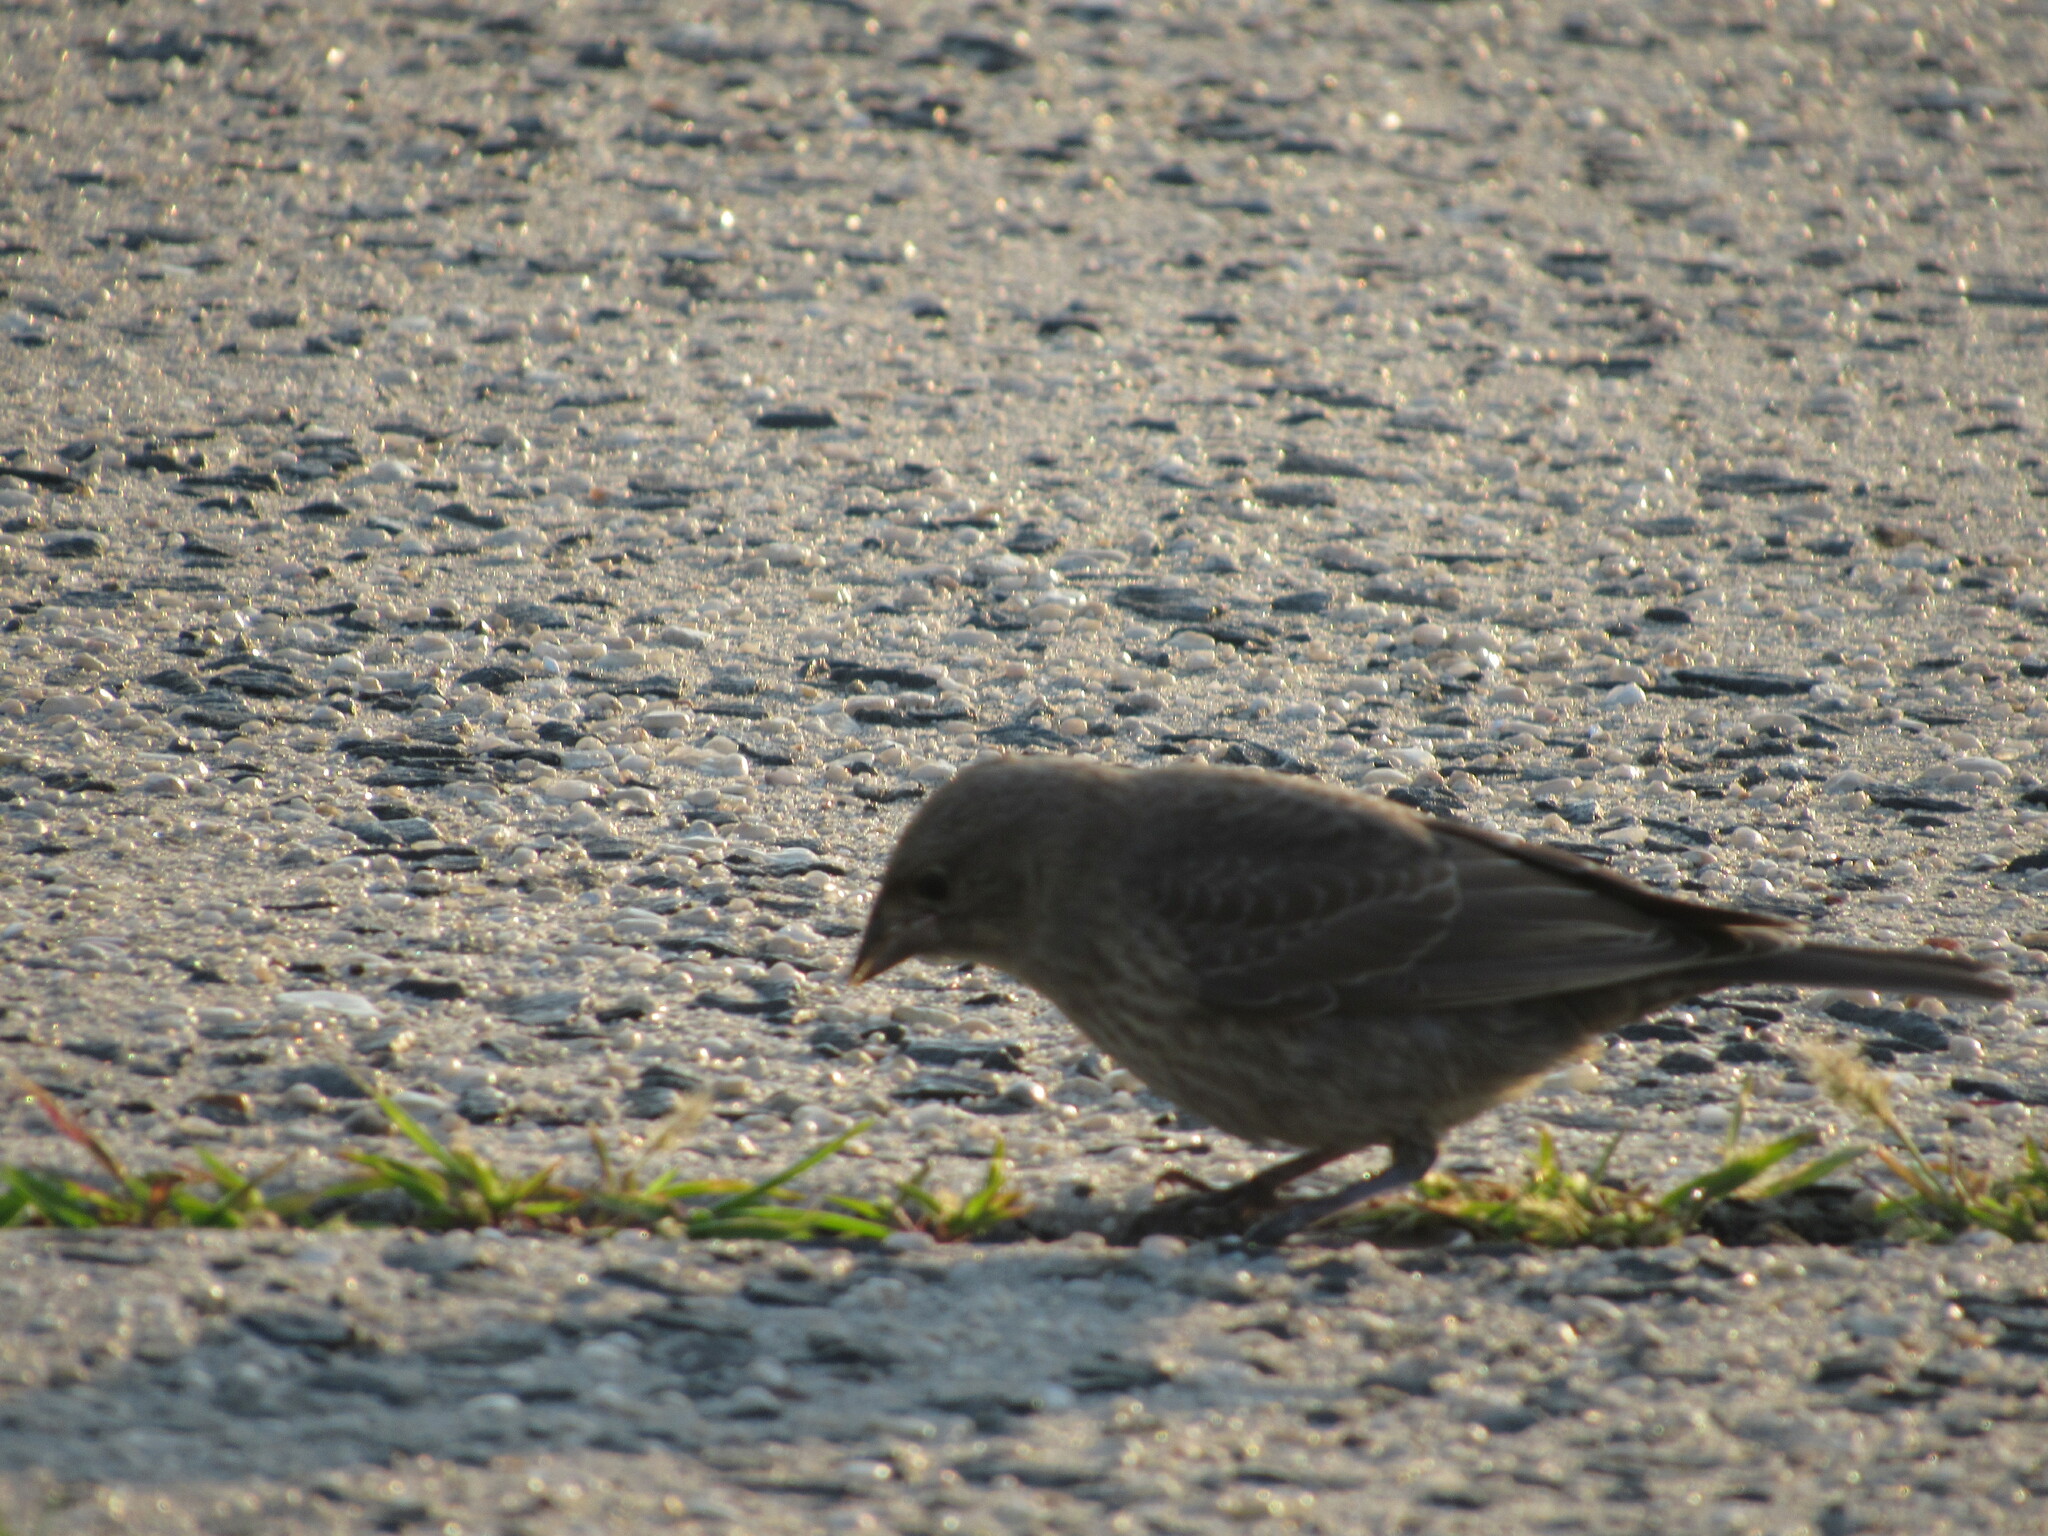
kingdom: Animalia
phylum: Chordata
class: Aves
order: Passeriformes
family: Icteridae
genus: Molothrus
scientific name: Molothrus ater
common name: Brown-headed cowbird
